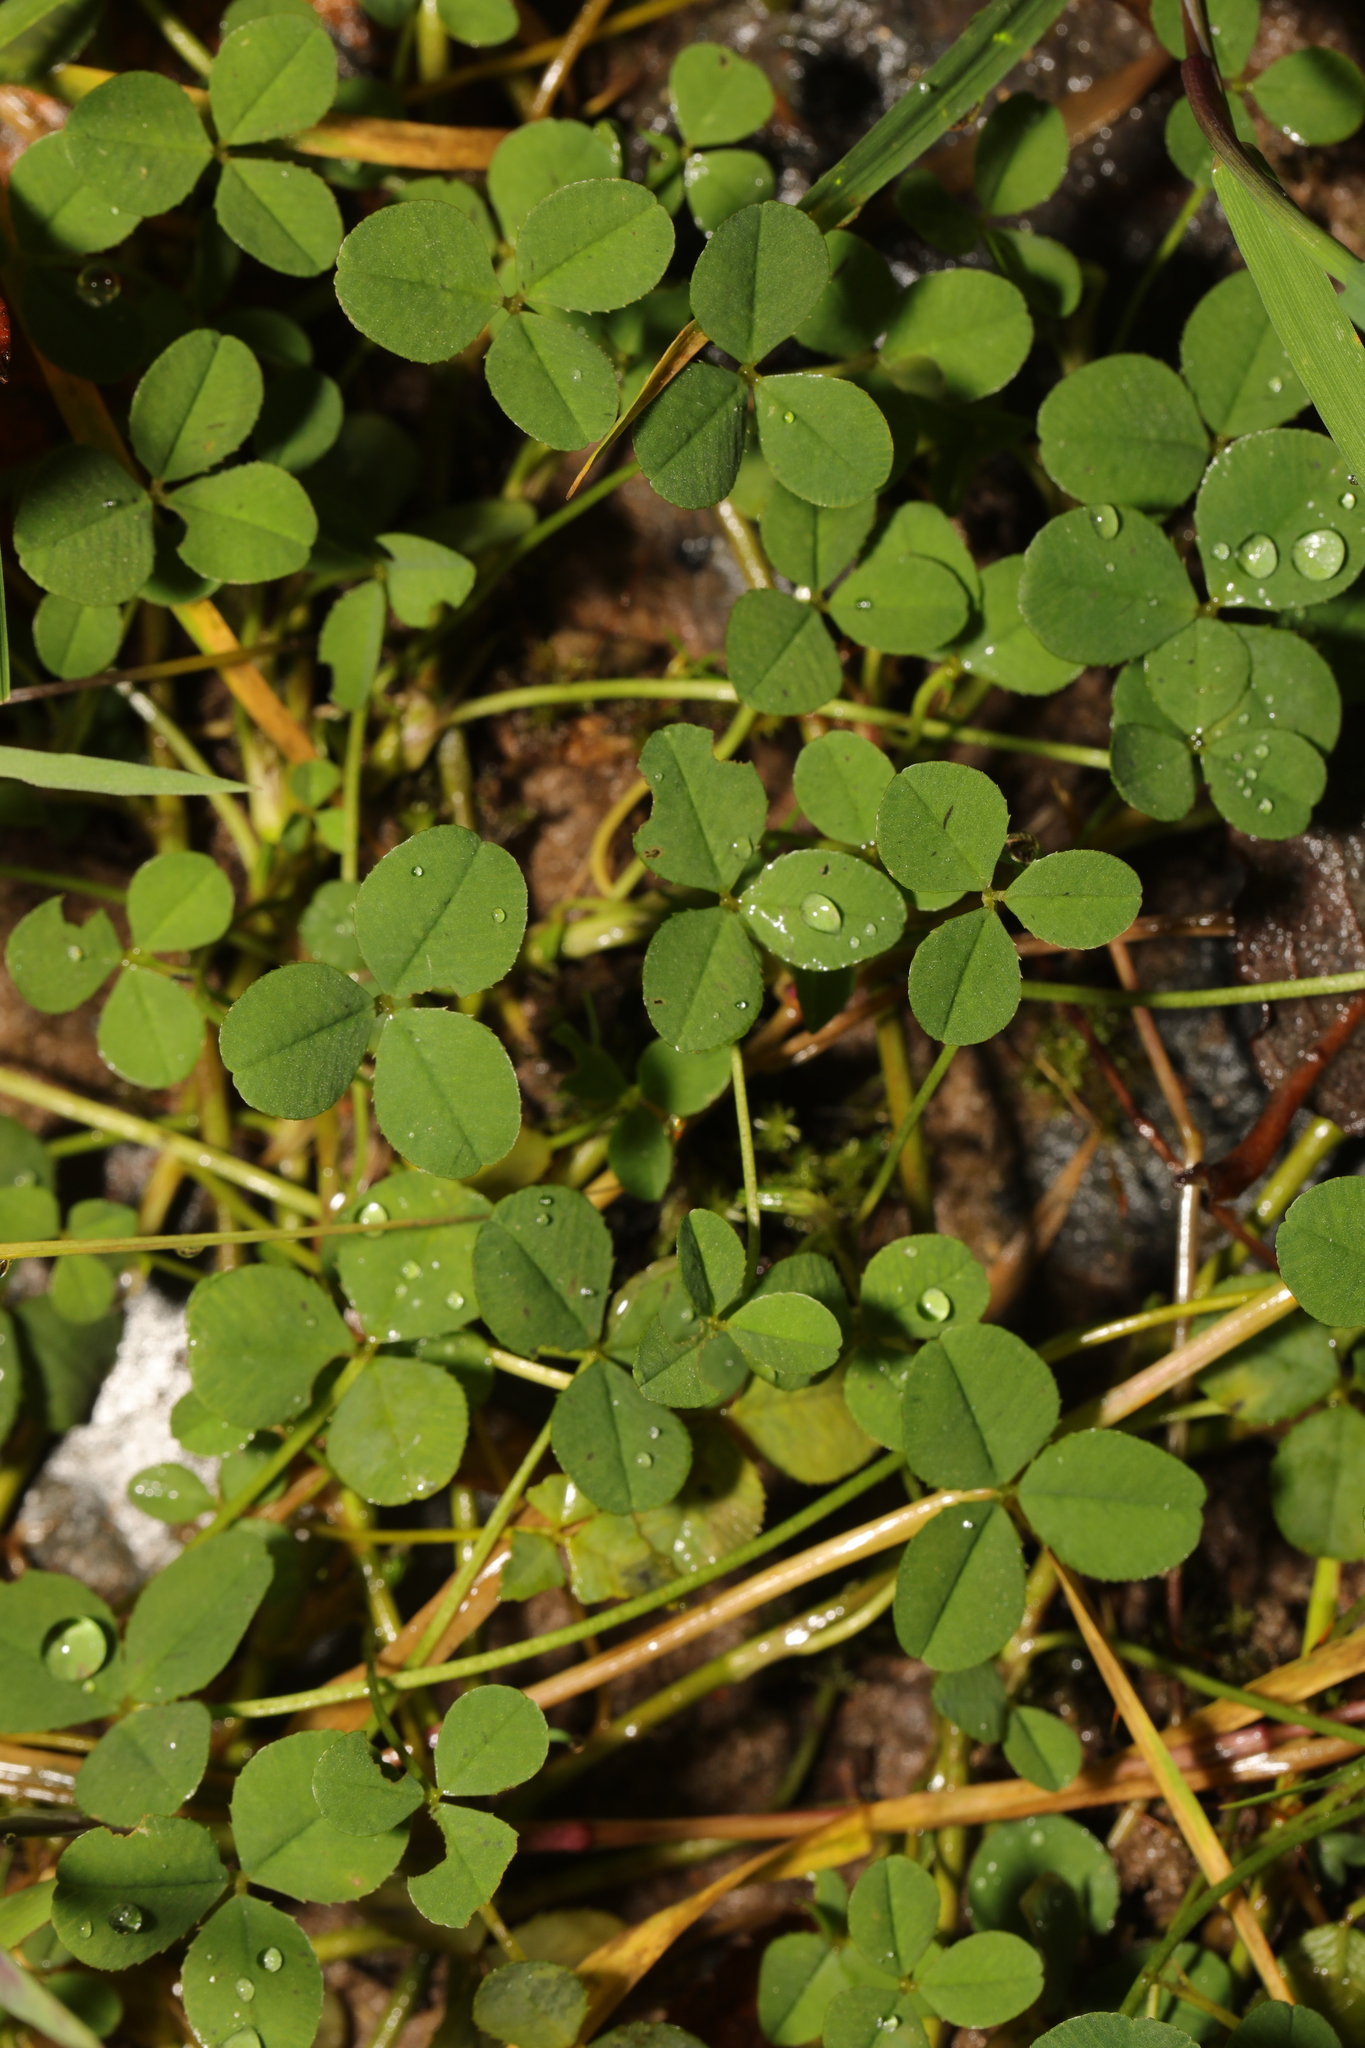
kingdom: Plantae
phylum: Tracheophyta
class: Magnoliopsida
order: Fabales
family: Fabaceae
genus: Trifolium
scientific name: Trifolium repens
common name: White clover
